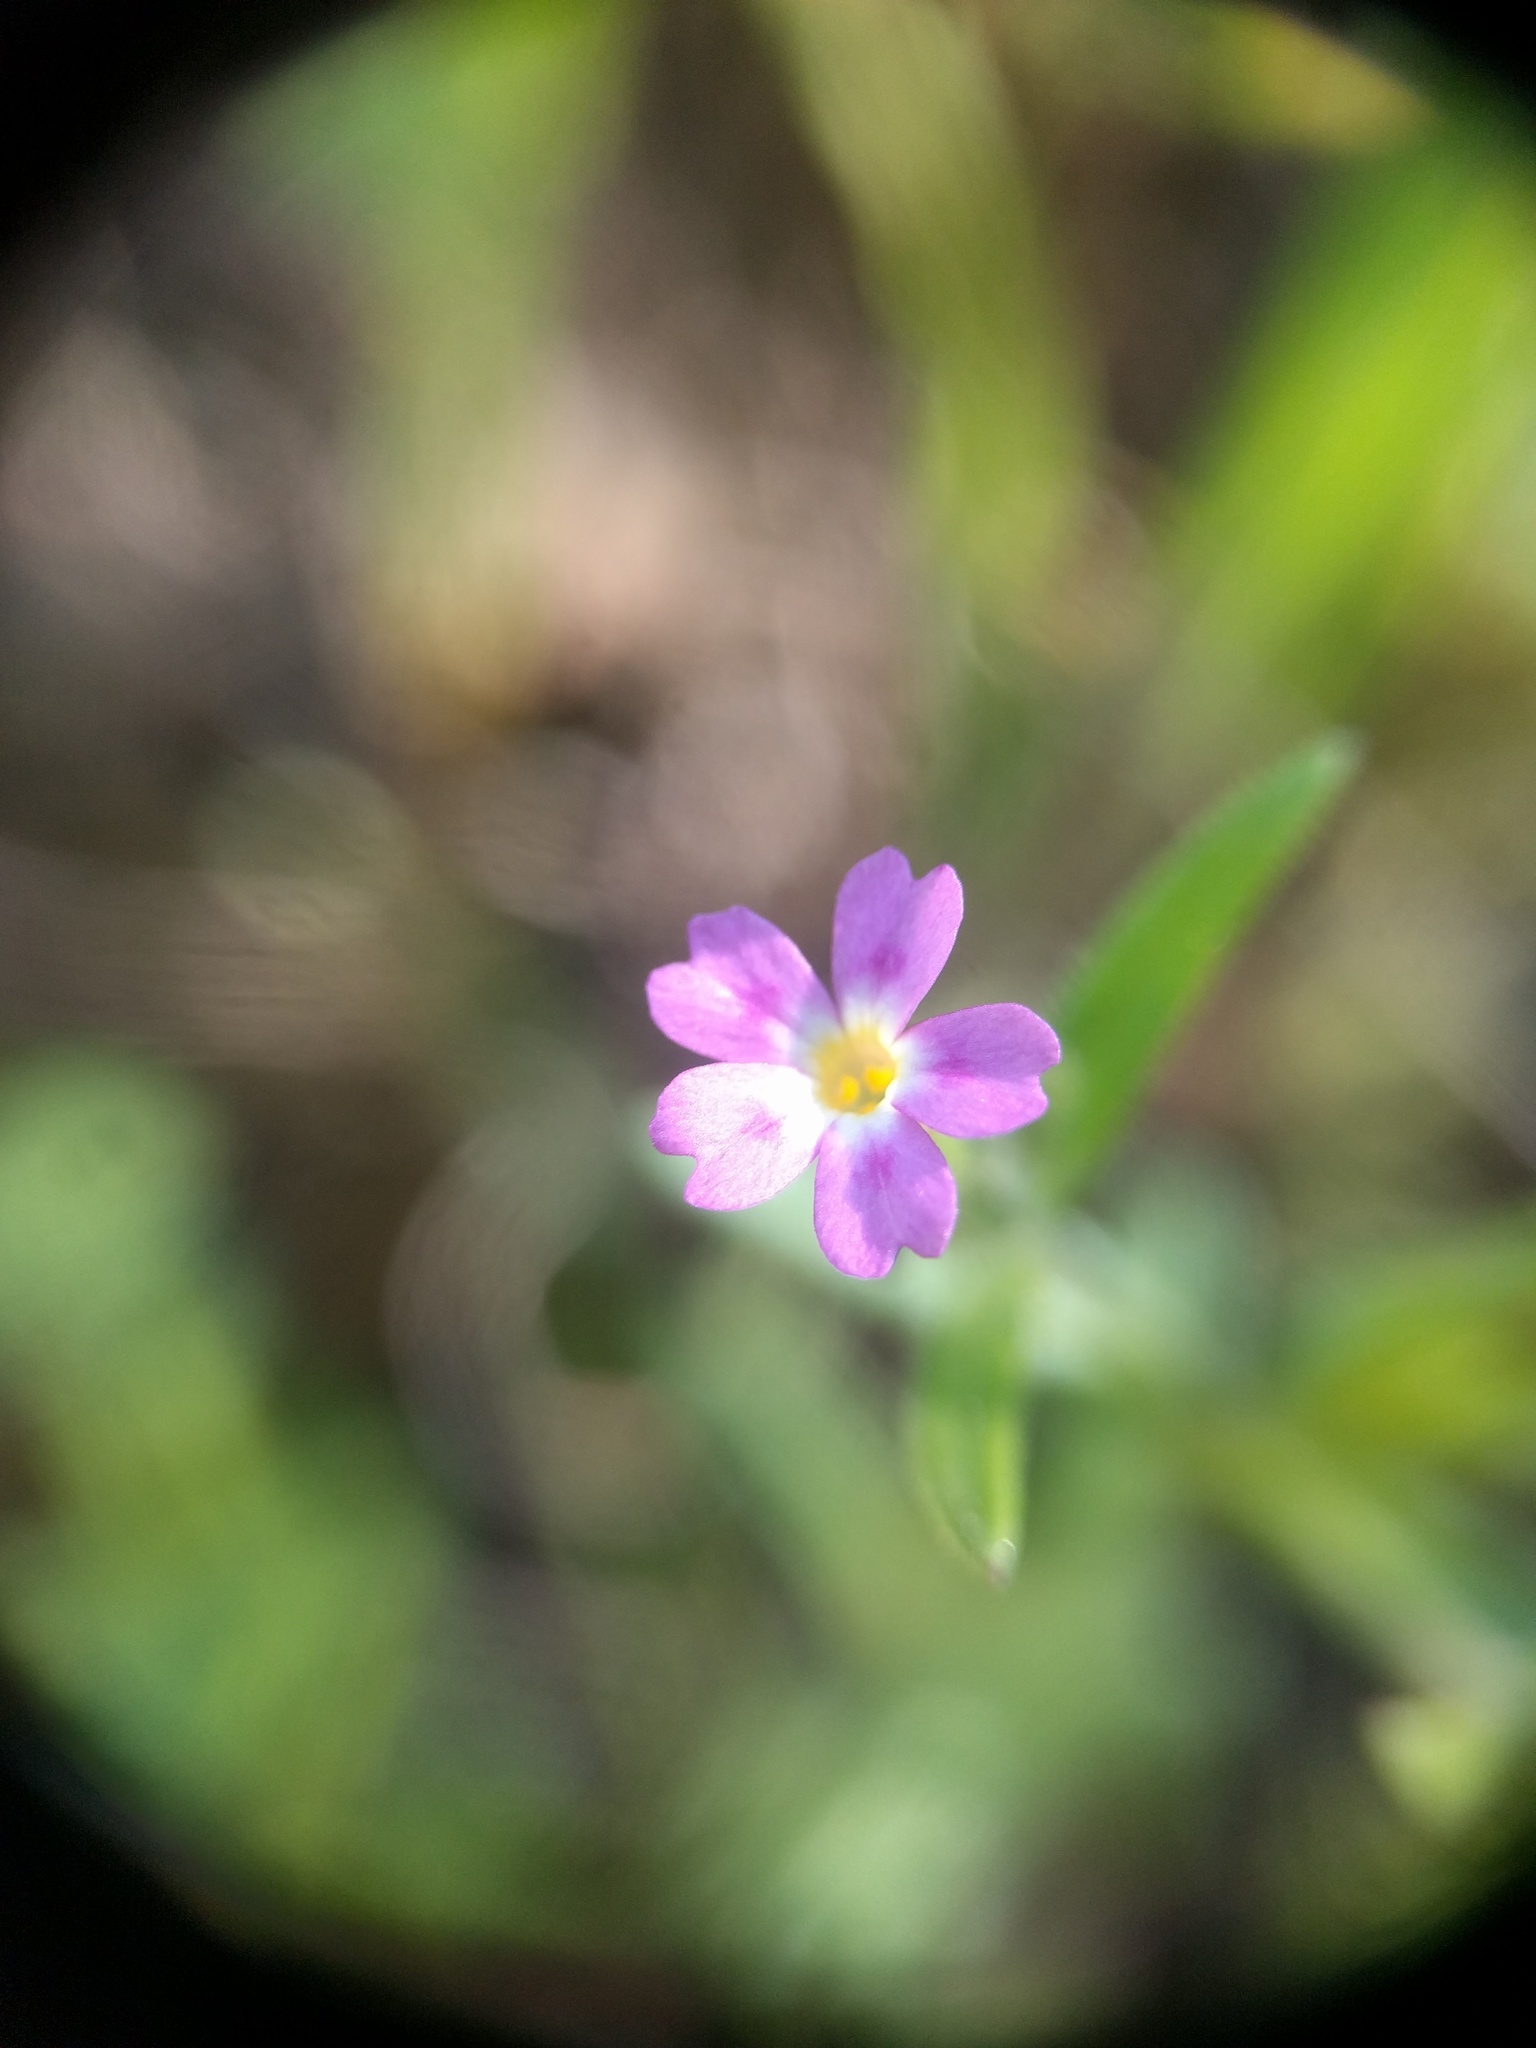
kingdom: Plantae
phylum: Tracheophyta
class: Magnoliopsida
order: Ericales
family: Polemoniaceae
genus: Phlox
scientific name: Phlox gracilis
